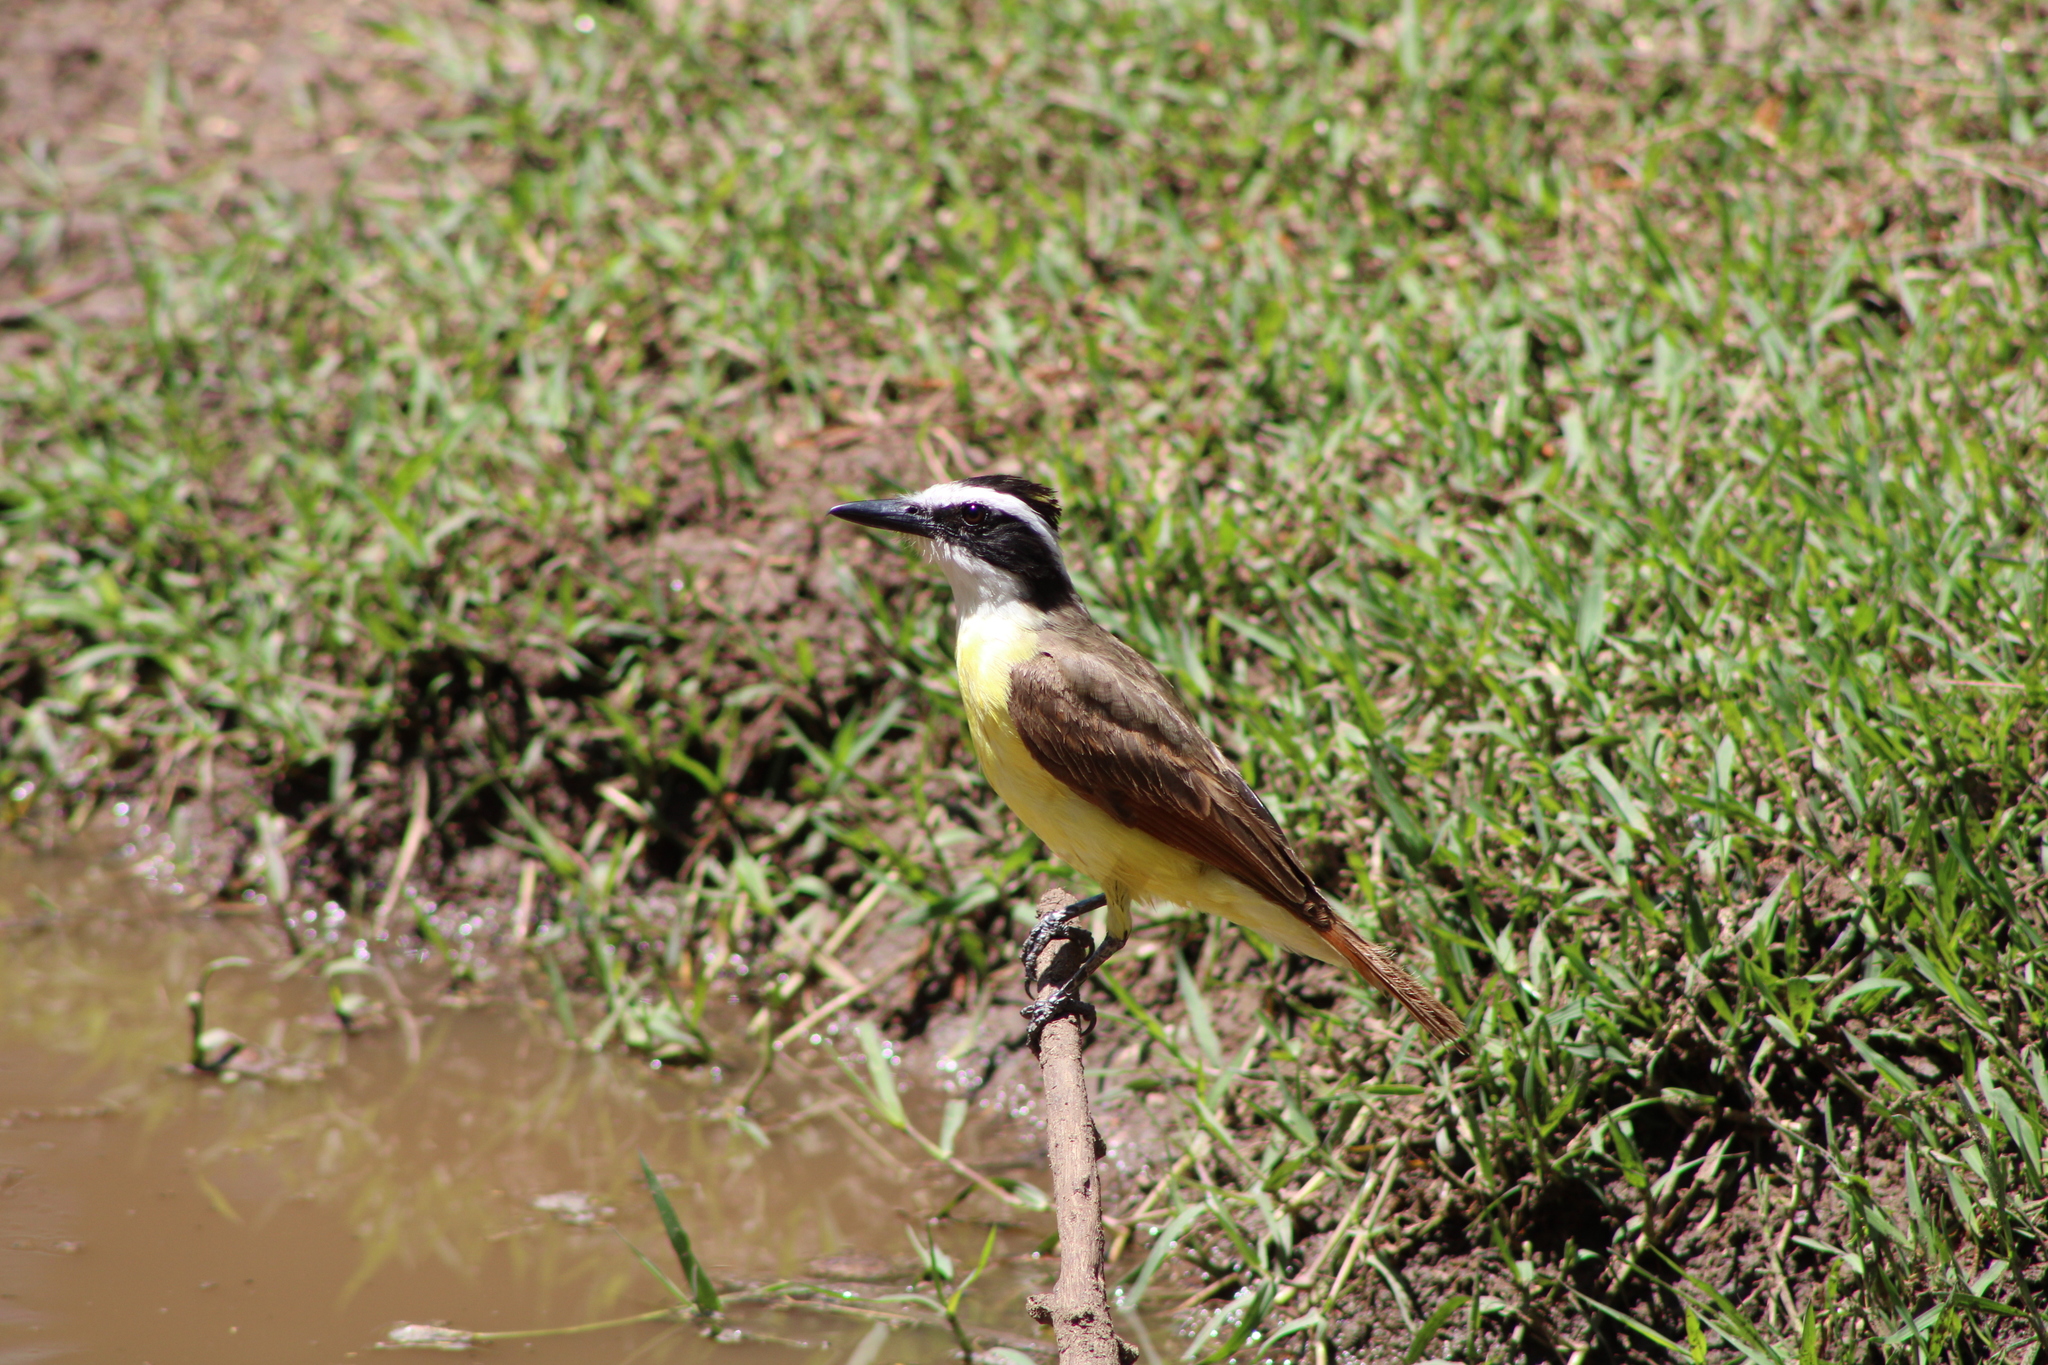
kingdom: Animalia
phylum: Chordata
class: Aves
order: Passeriformes
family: Tyrannidae
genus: Pitangus
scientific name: Pitangus sulphuratus
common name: Great kiskadee
